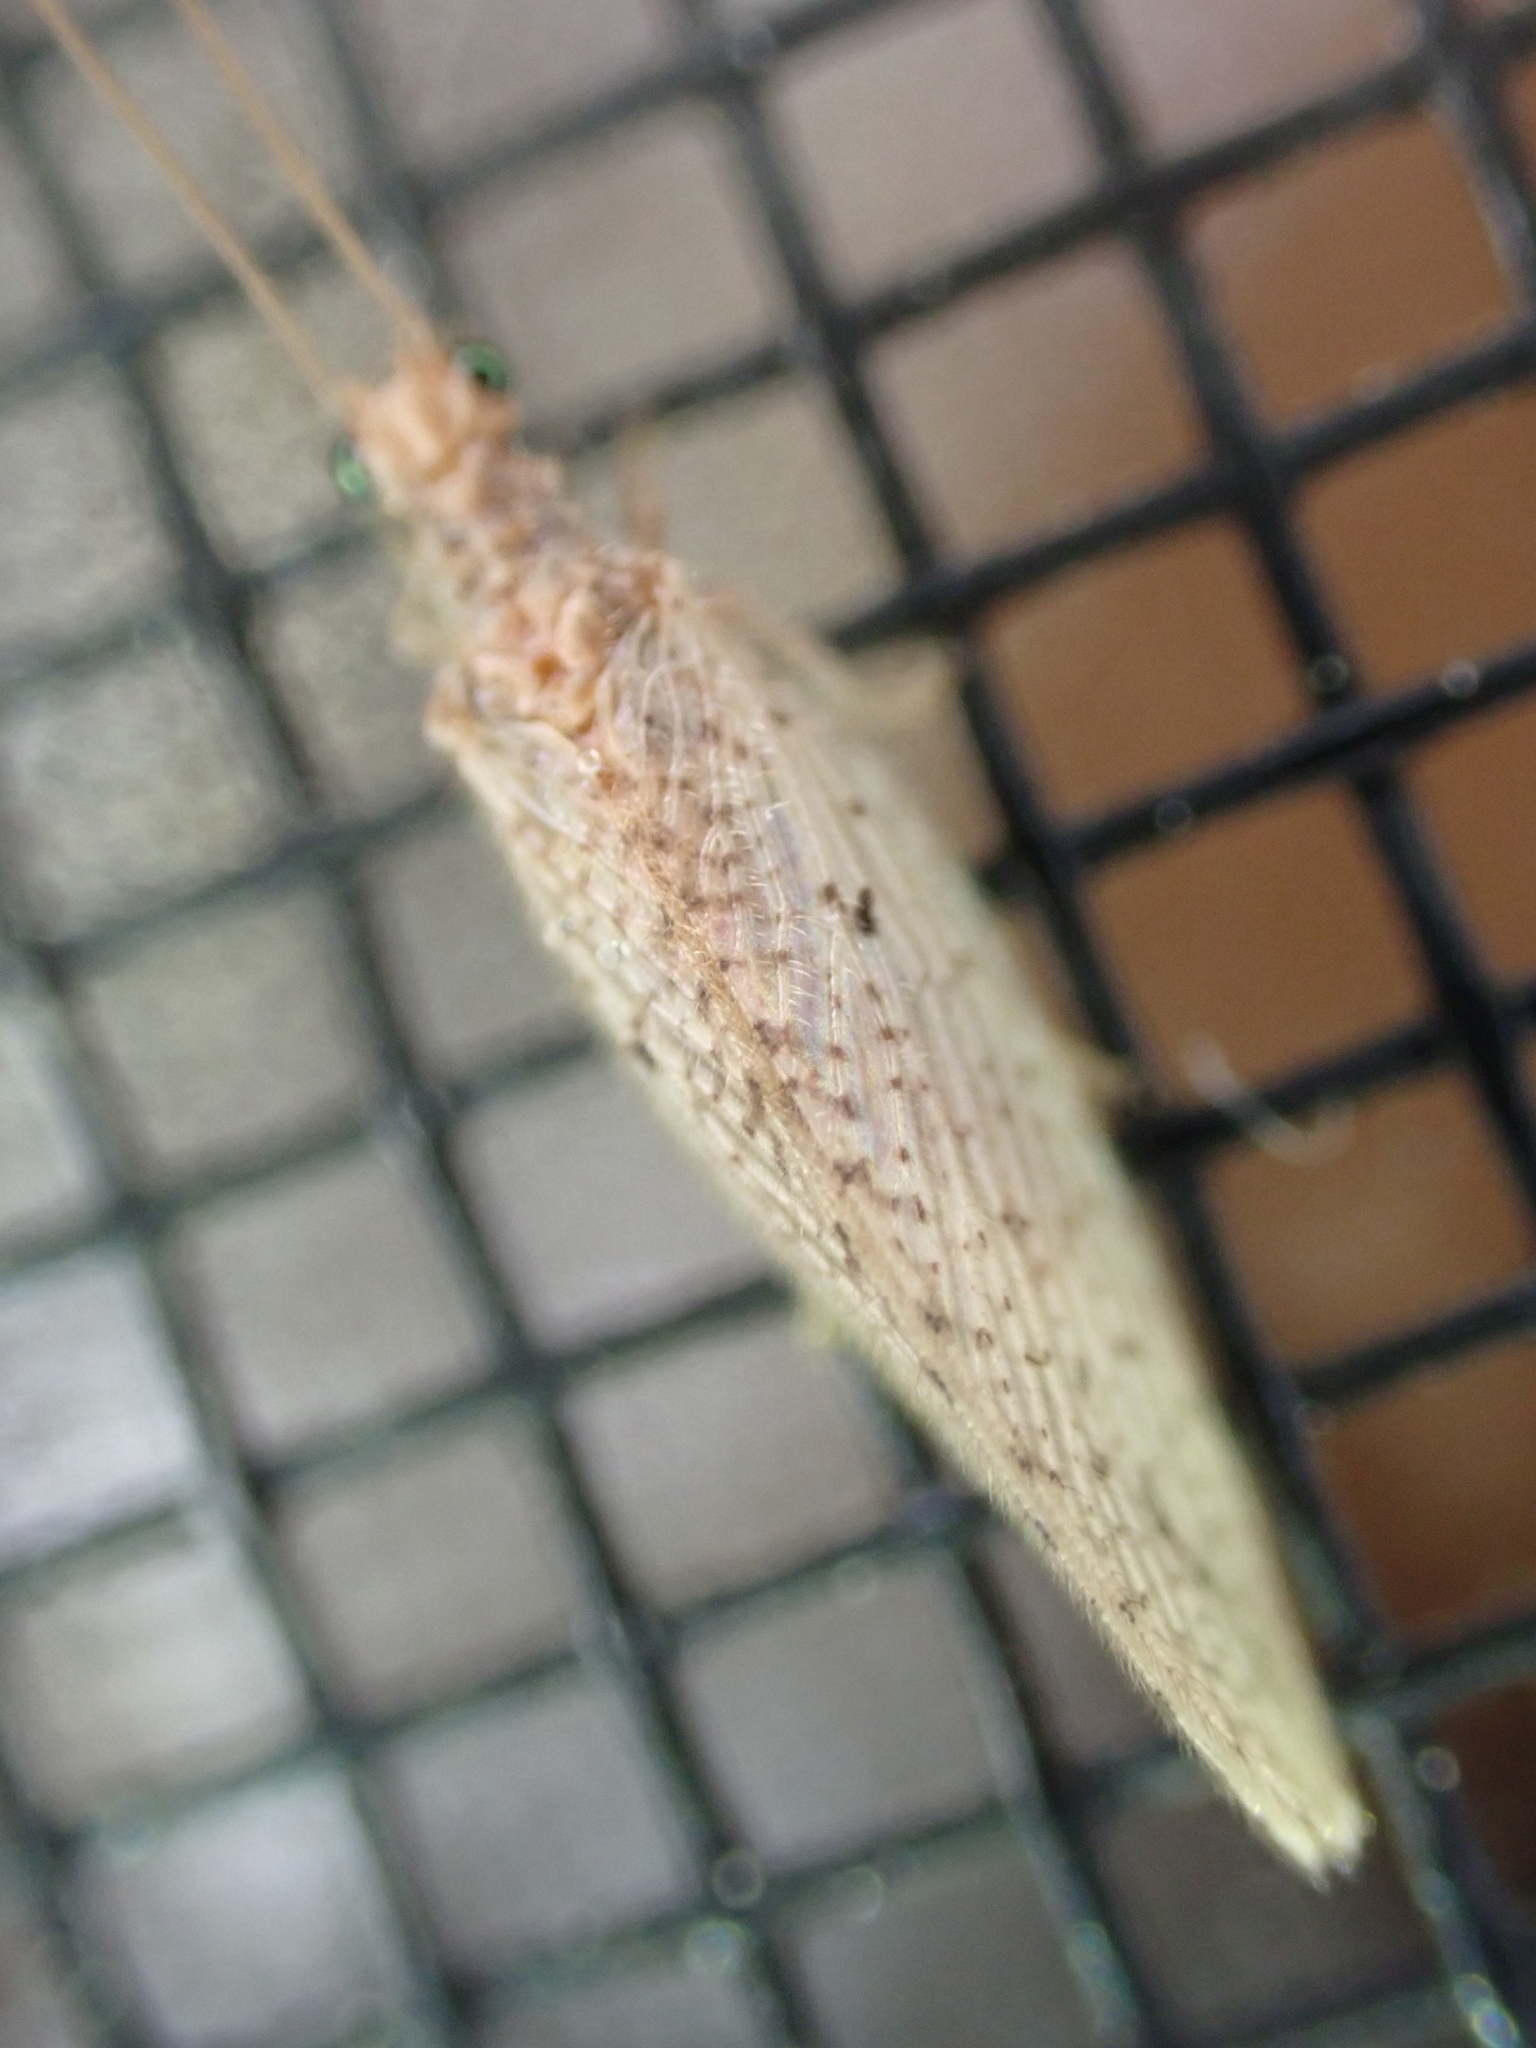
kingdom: Animalia
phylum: Arthropoda
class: Insecta
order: Neuroptera
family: Hemerobiidae
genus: Micromus
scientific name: Micromus subanticus
